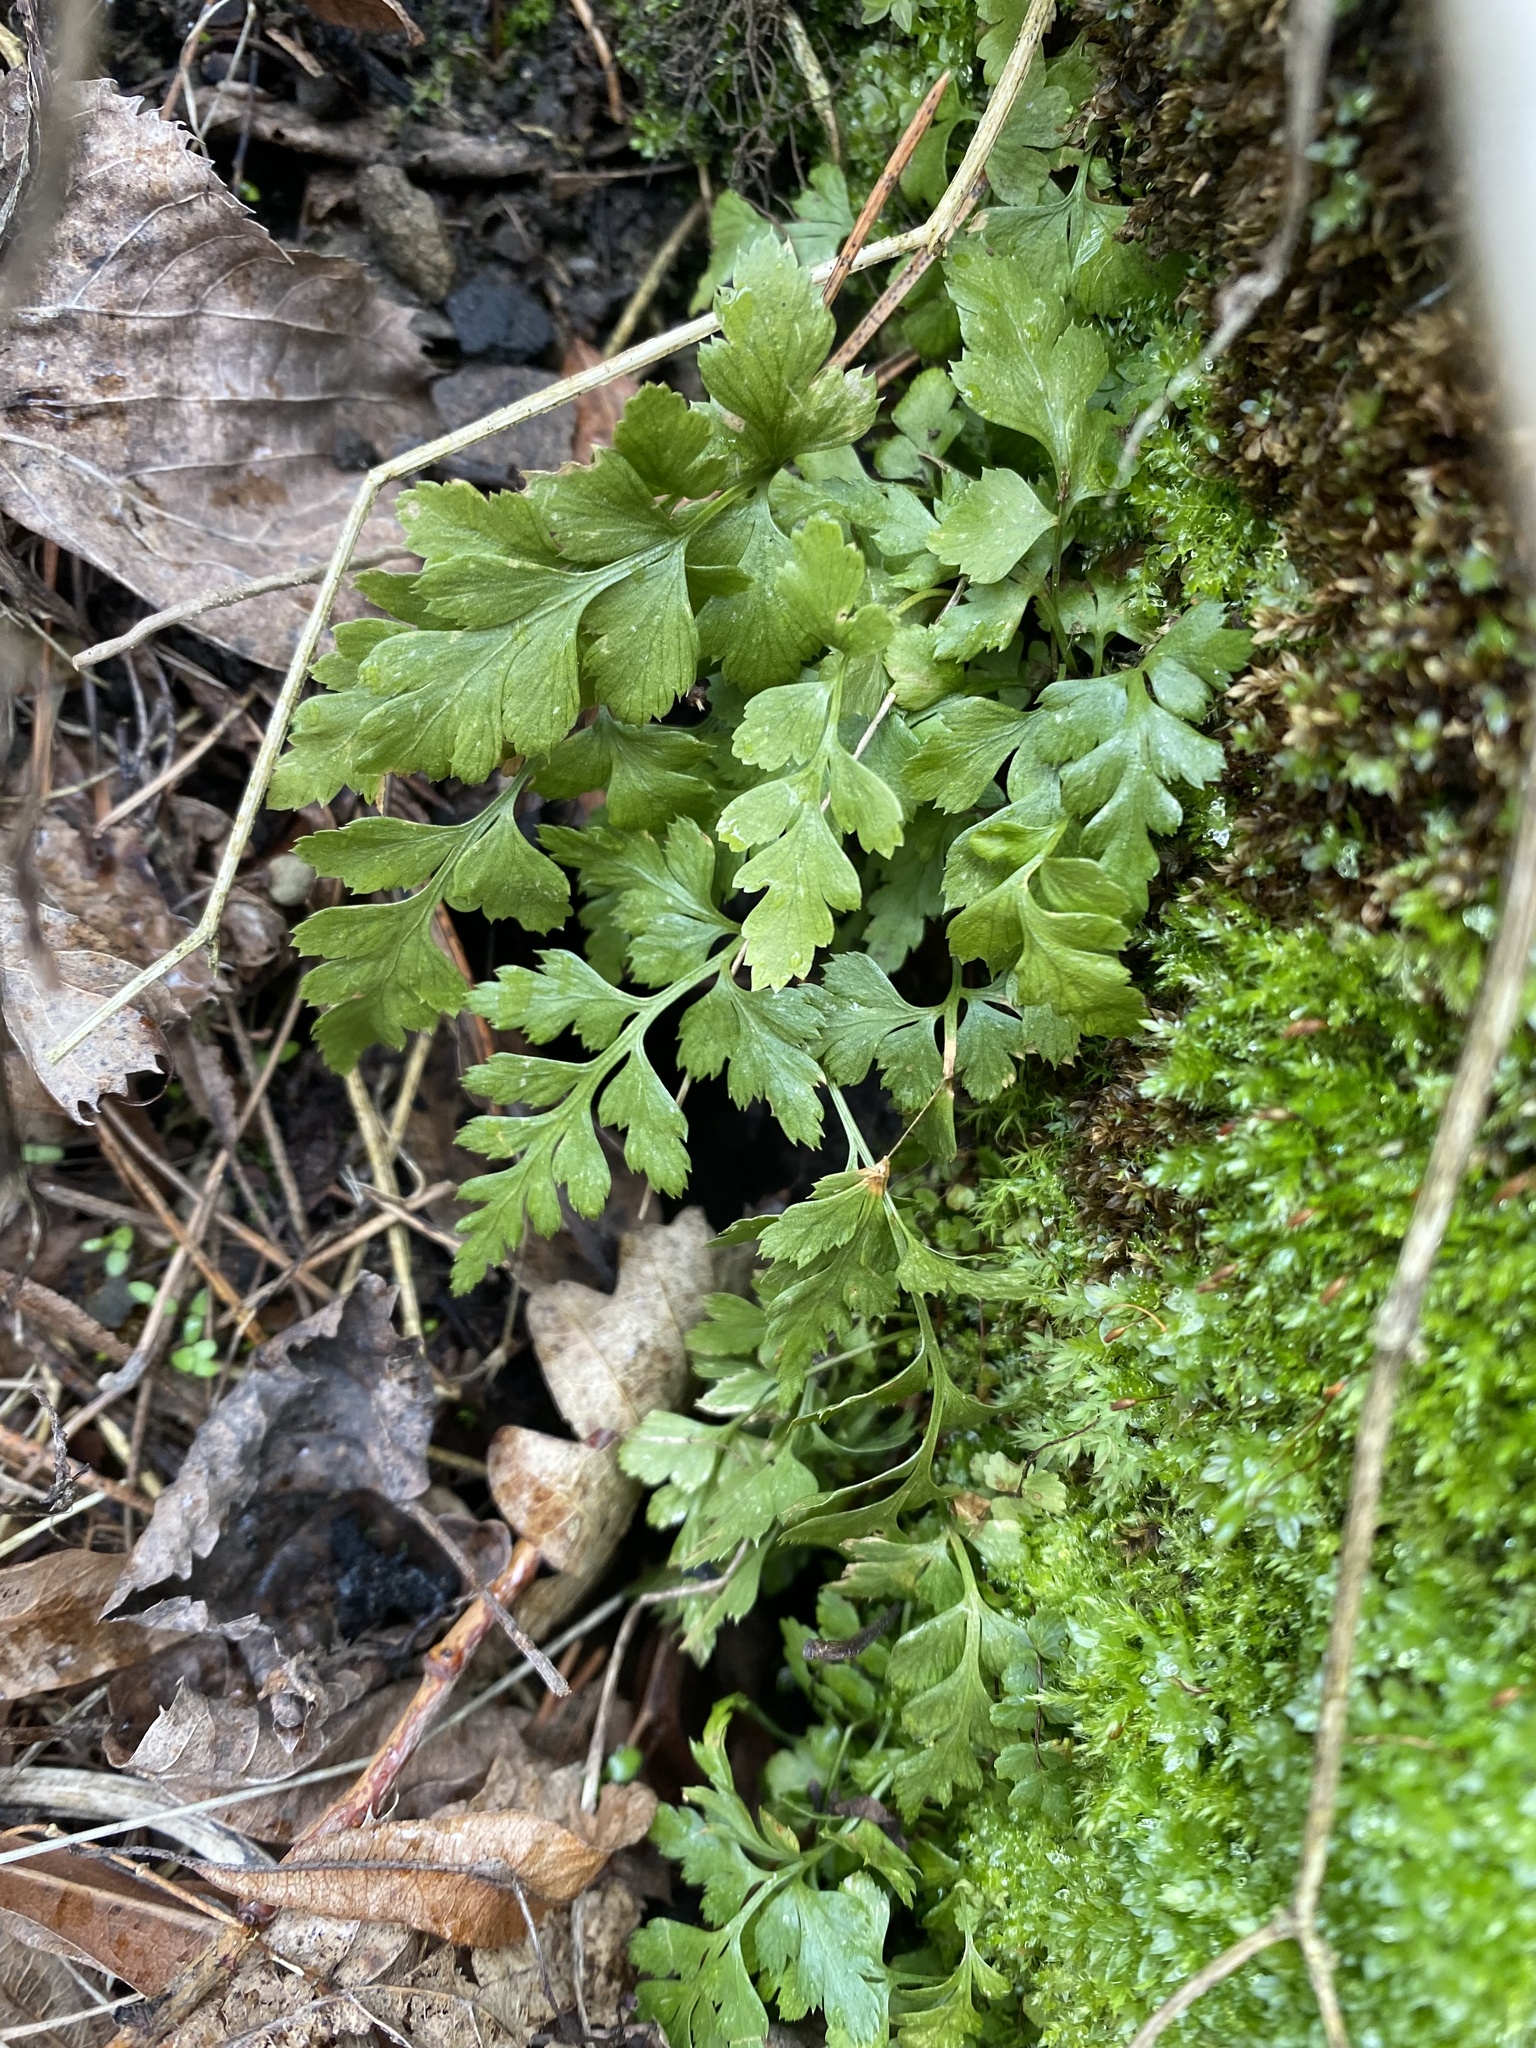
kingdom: Plantae
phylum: Tracheophyta
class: Polypodiopsida
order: Polypodiales
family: Aspleniaceae
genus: Asplenium
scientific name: Asplenium adiantum-nigrum
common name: Black spleenwort
